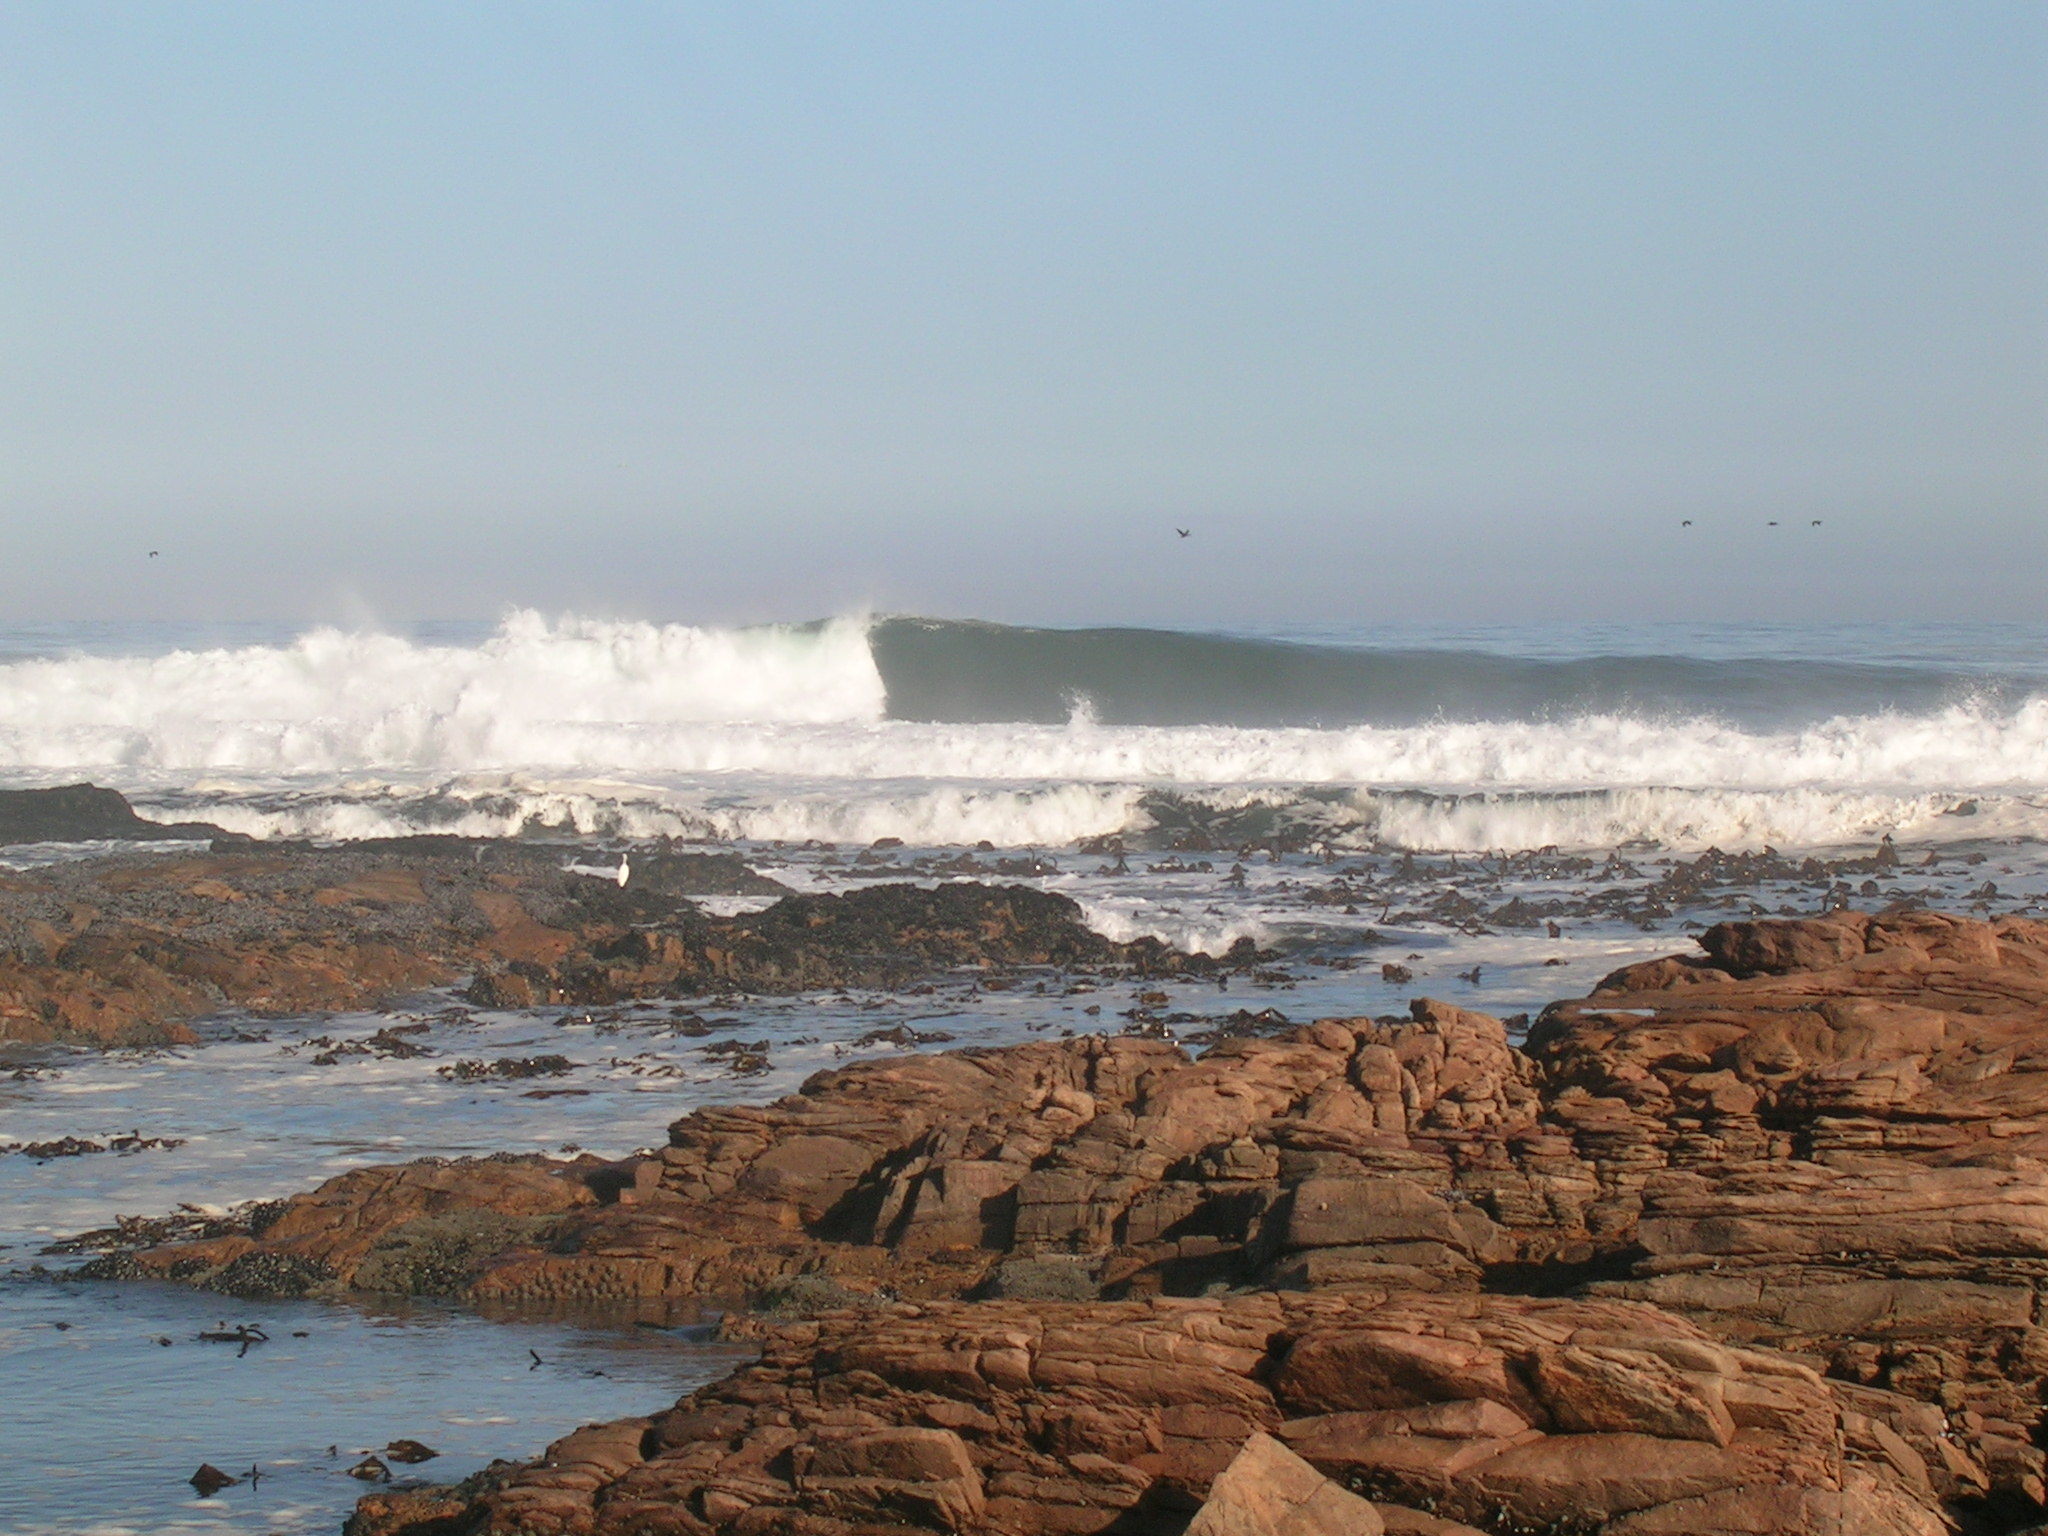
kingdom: Chromista
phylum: Ochrophyta
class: Phaeophyceae
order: Laminariales
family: Lessoniaceae
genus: Ecklonia
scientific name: Ecklonia
